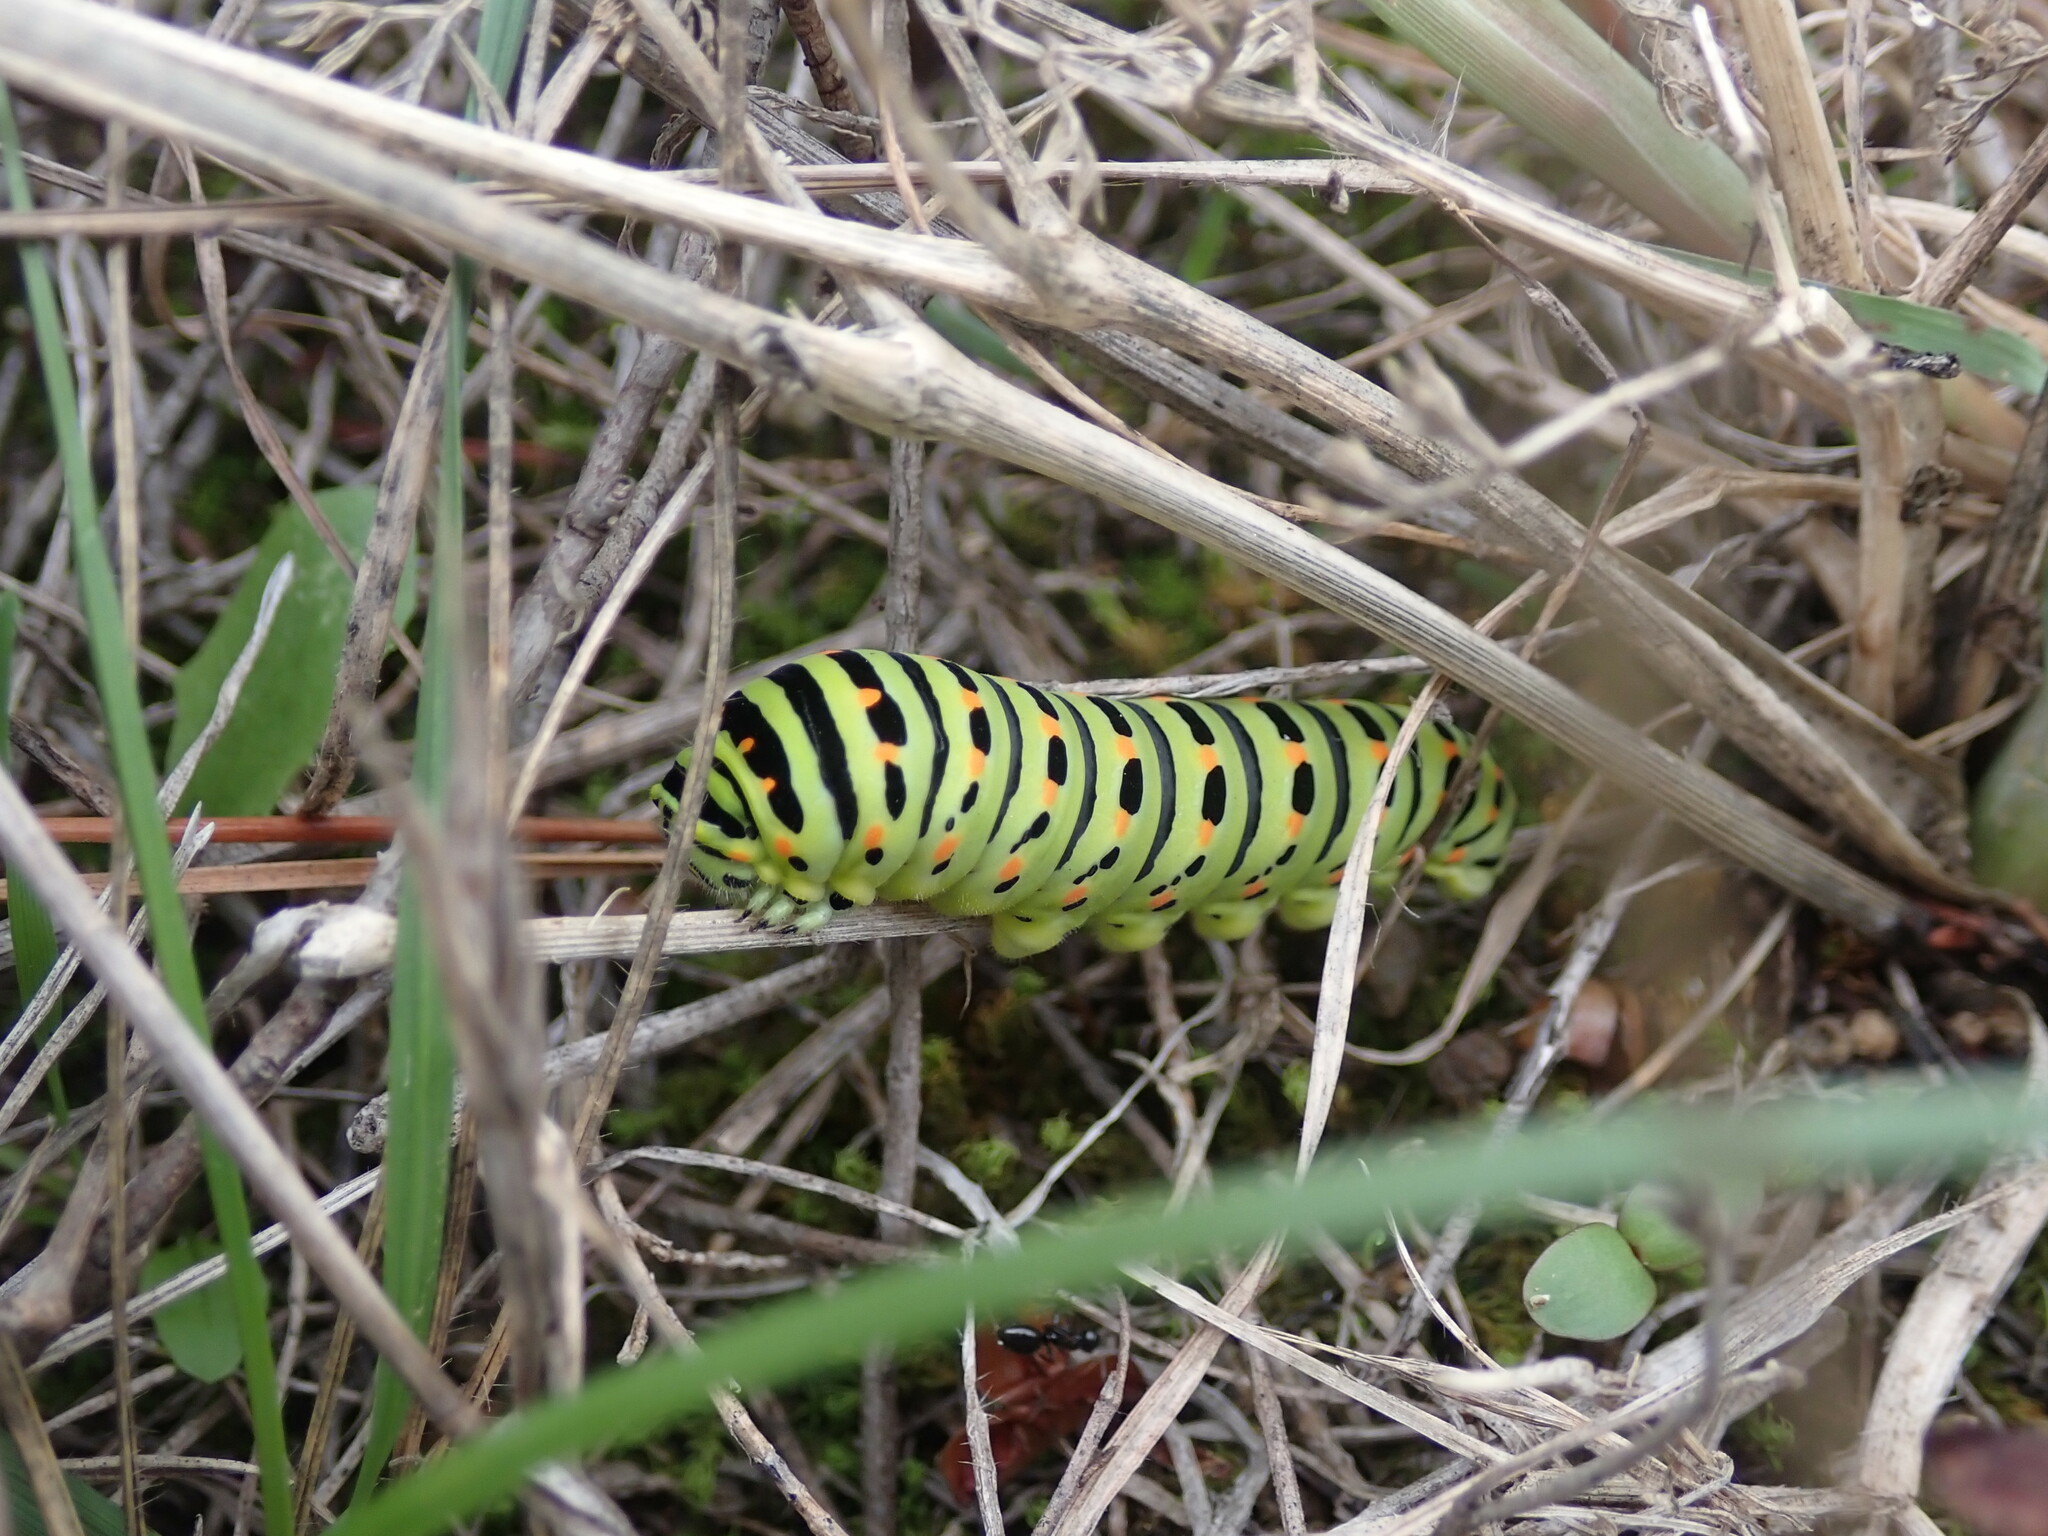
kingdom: Animalia
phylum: Arthropoda
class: Insecta
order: Lepidoptera
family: Papilionidae
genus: Papilio
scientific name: Papilio machaon
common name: Swallowtail
